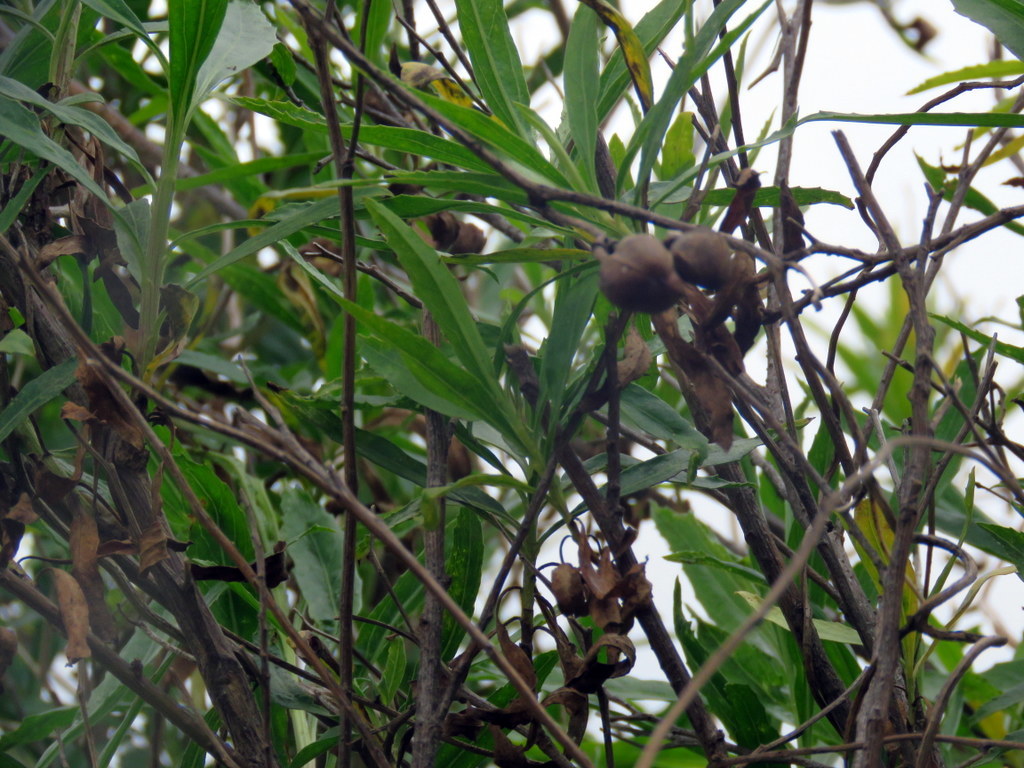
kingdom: Plantae
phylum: Tracheophyta
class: Magnoliopsida
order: Asterales
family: Asteraceae
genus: Baccharis
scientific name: Baccharis salicifolia
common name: Sticky baccharis
